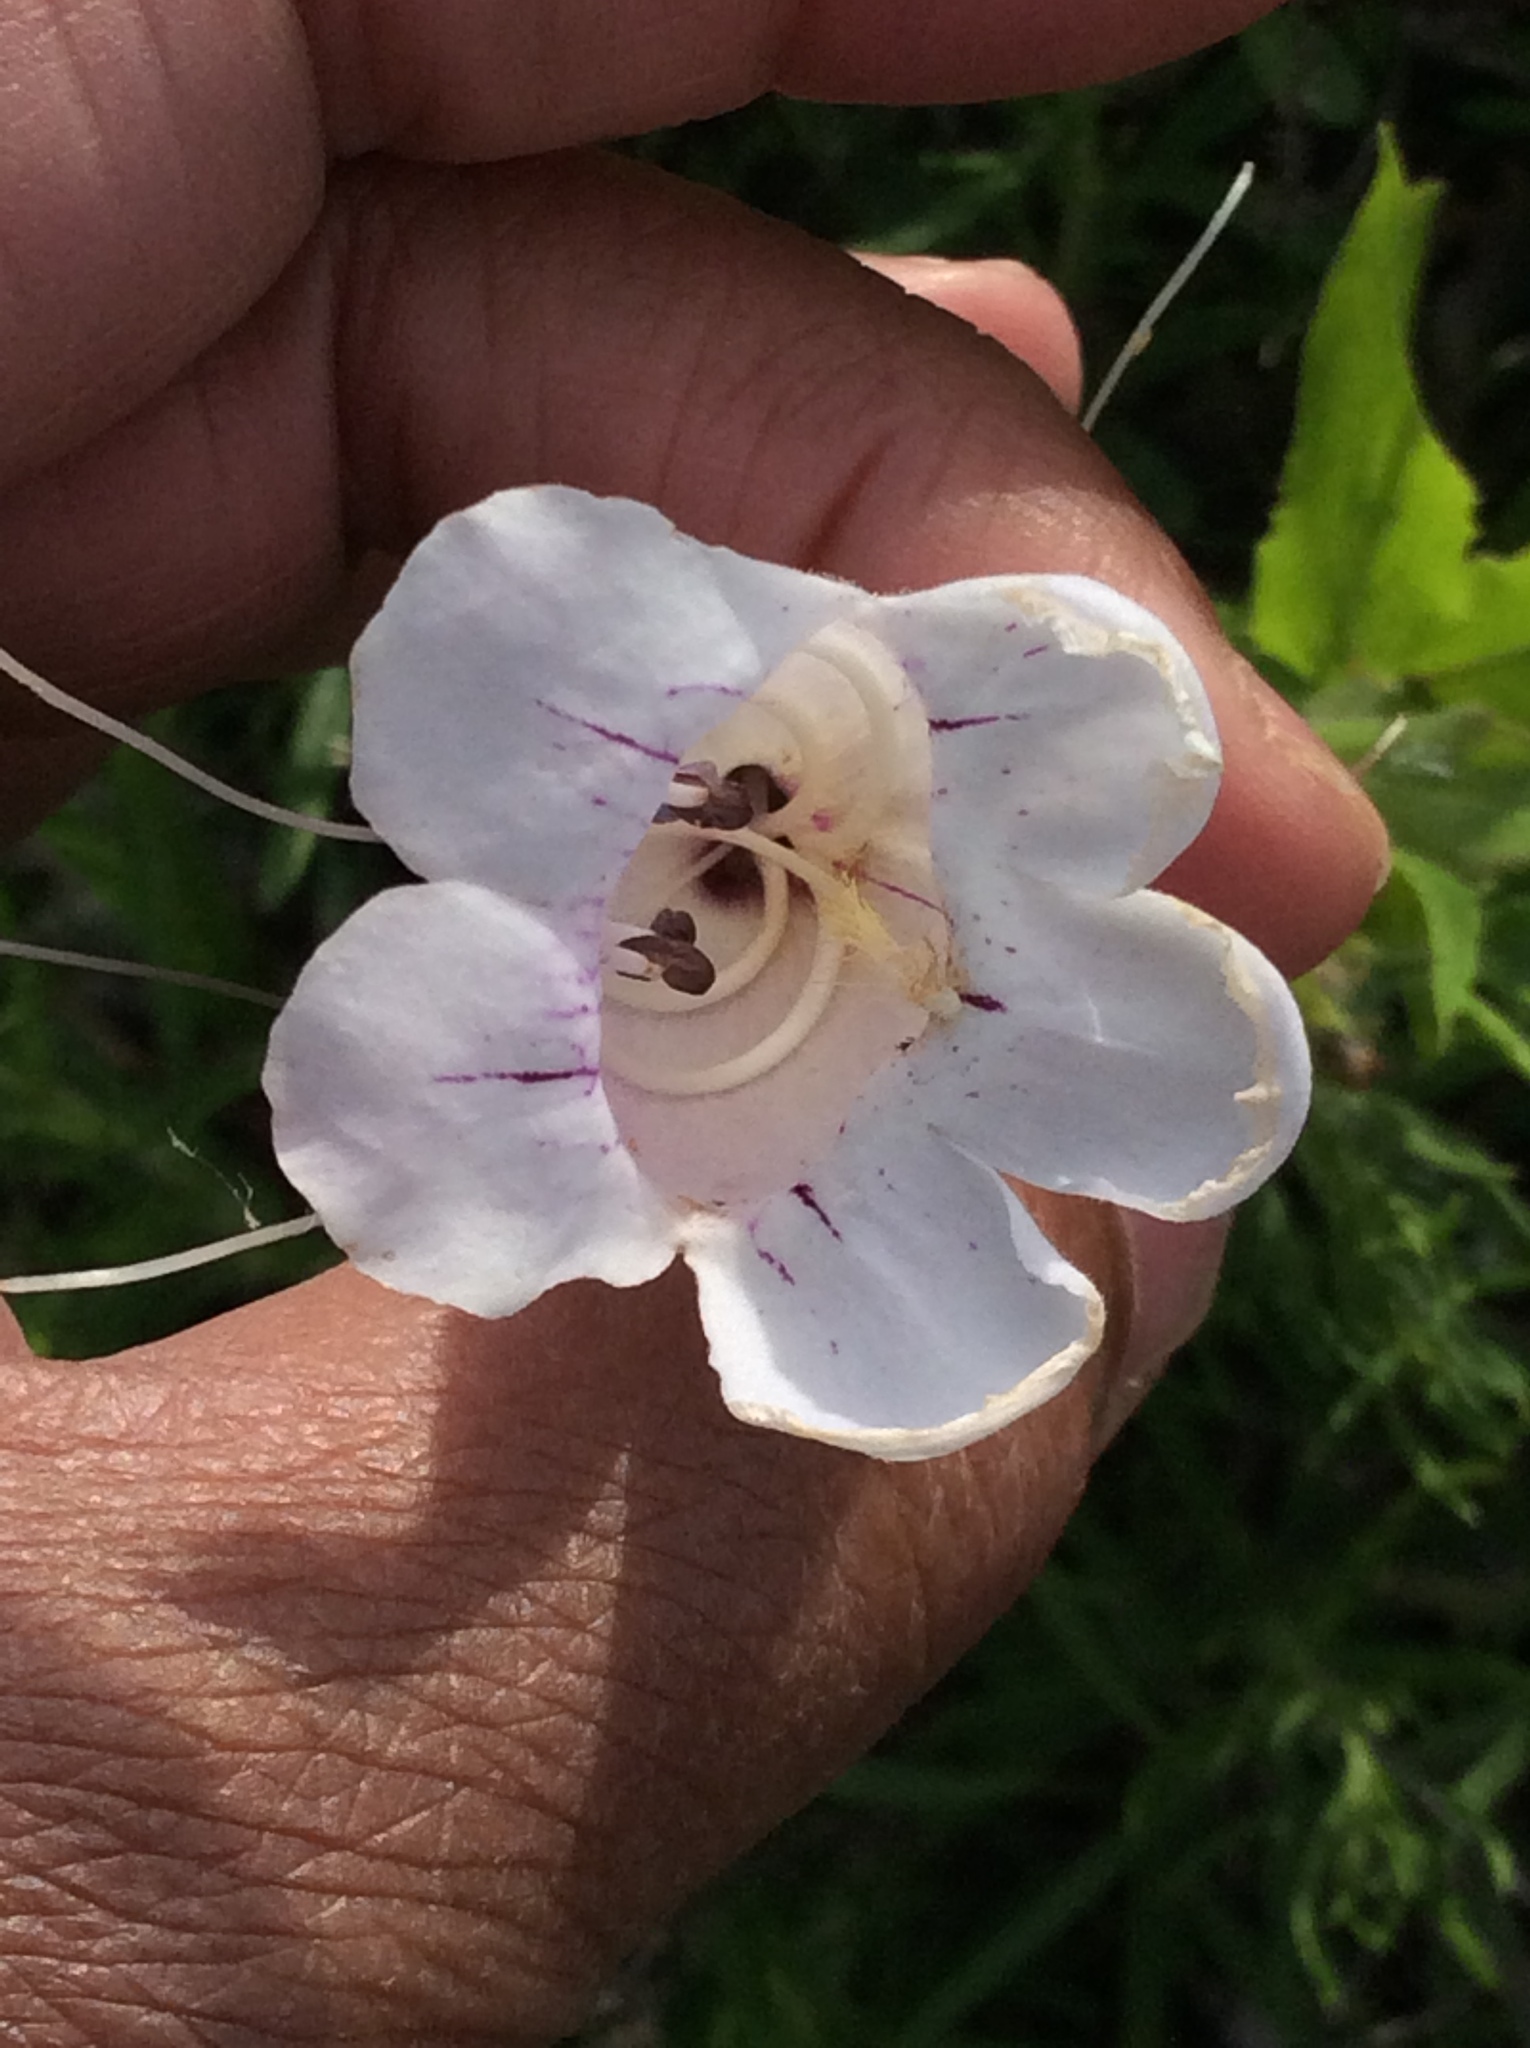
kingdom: Plantae
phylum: Tracheophyta
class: Magnoliopsida
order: Lamiales
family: Plantaginaceae
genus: Penstemon
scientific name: Penstemon cobaea
